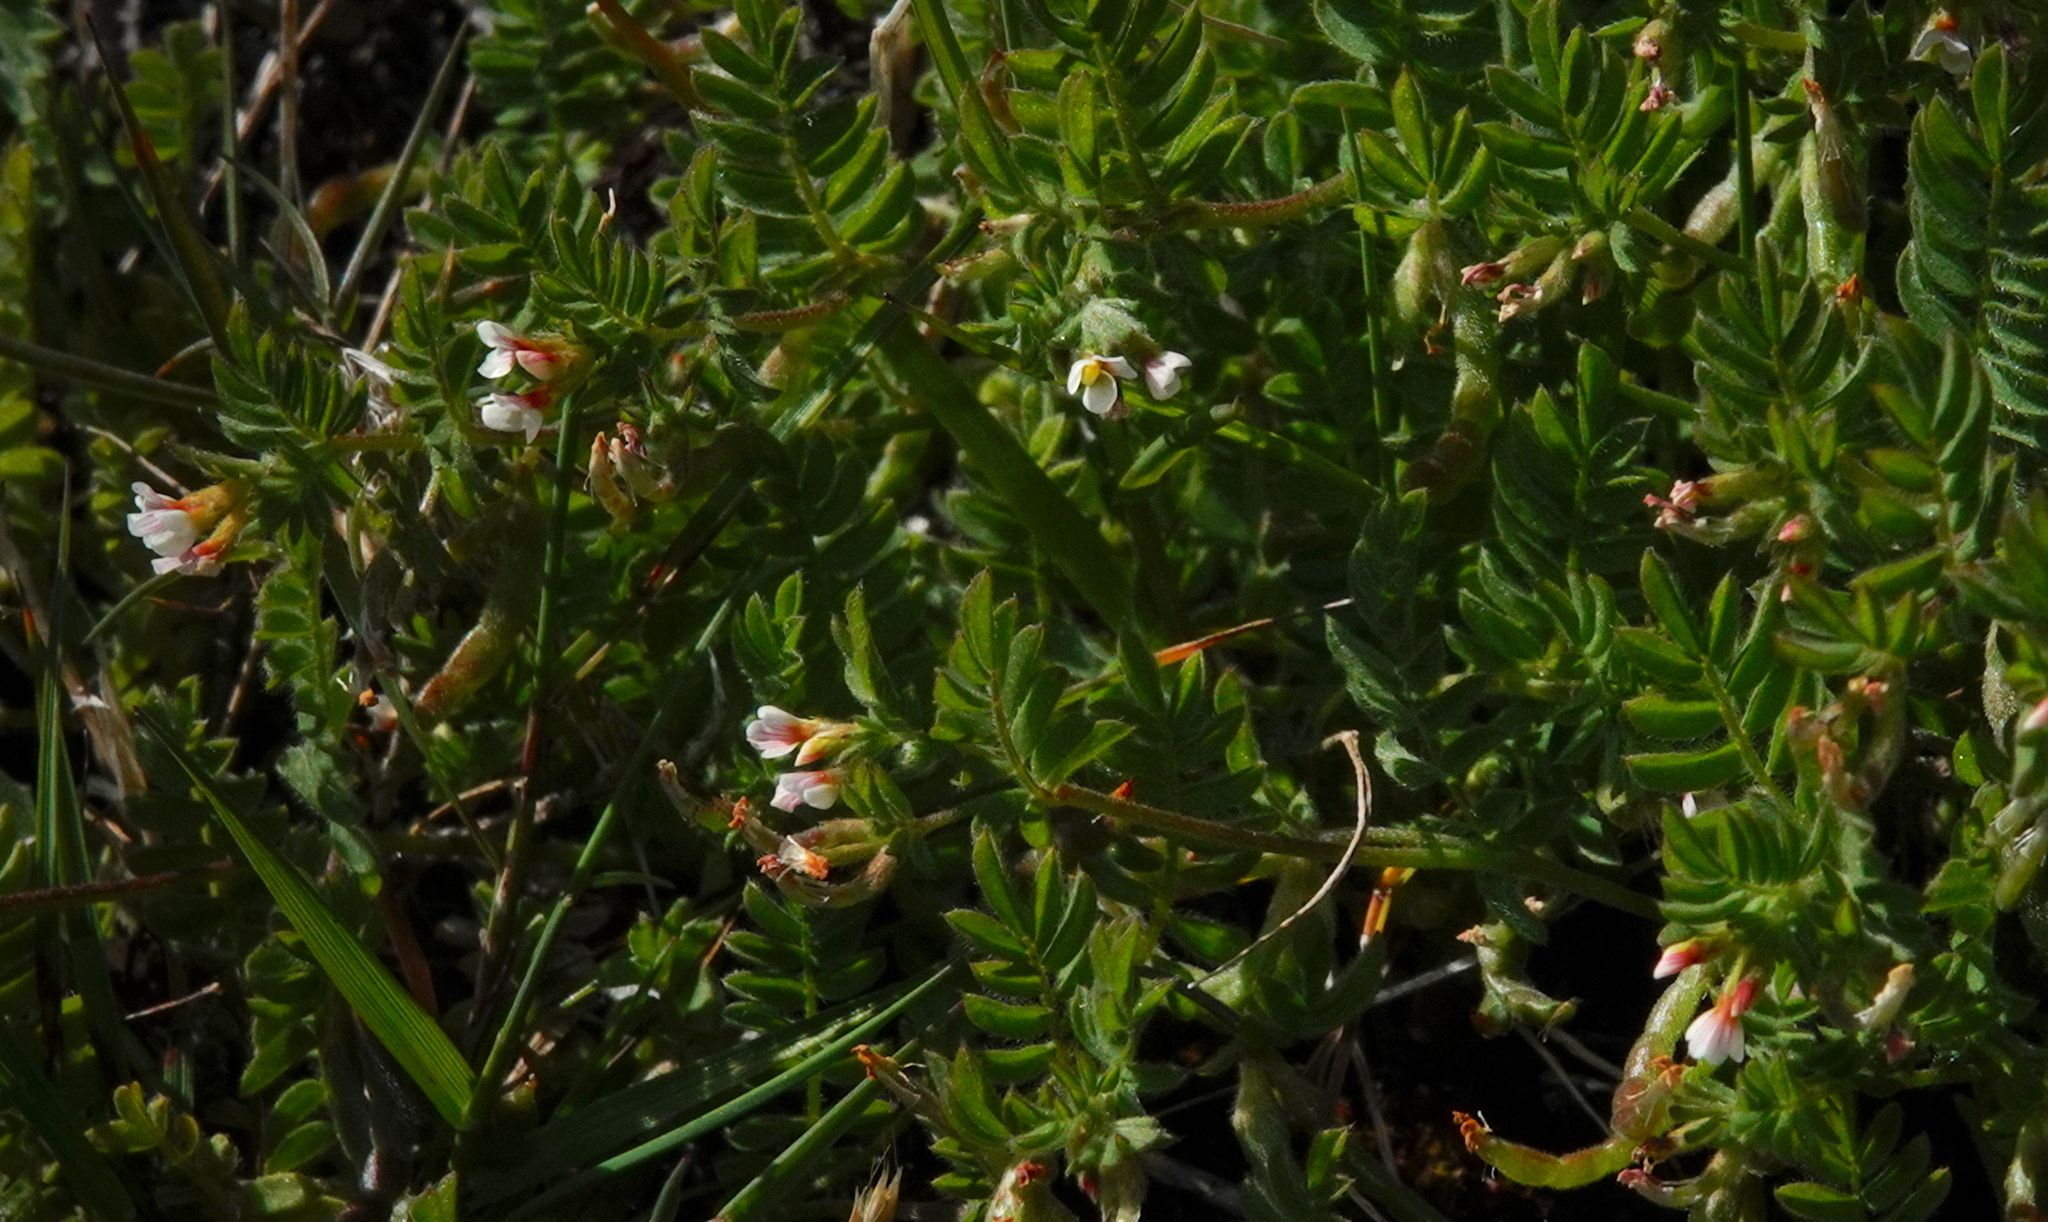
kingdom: Plantae
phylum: Tracheophyta
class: Magnoliopsida
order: Fabales
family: Fabaceae
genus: Ornithopus
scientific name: Ornithopus perpusillus
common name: Bird's-foot
